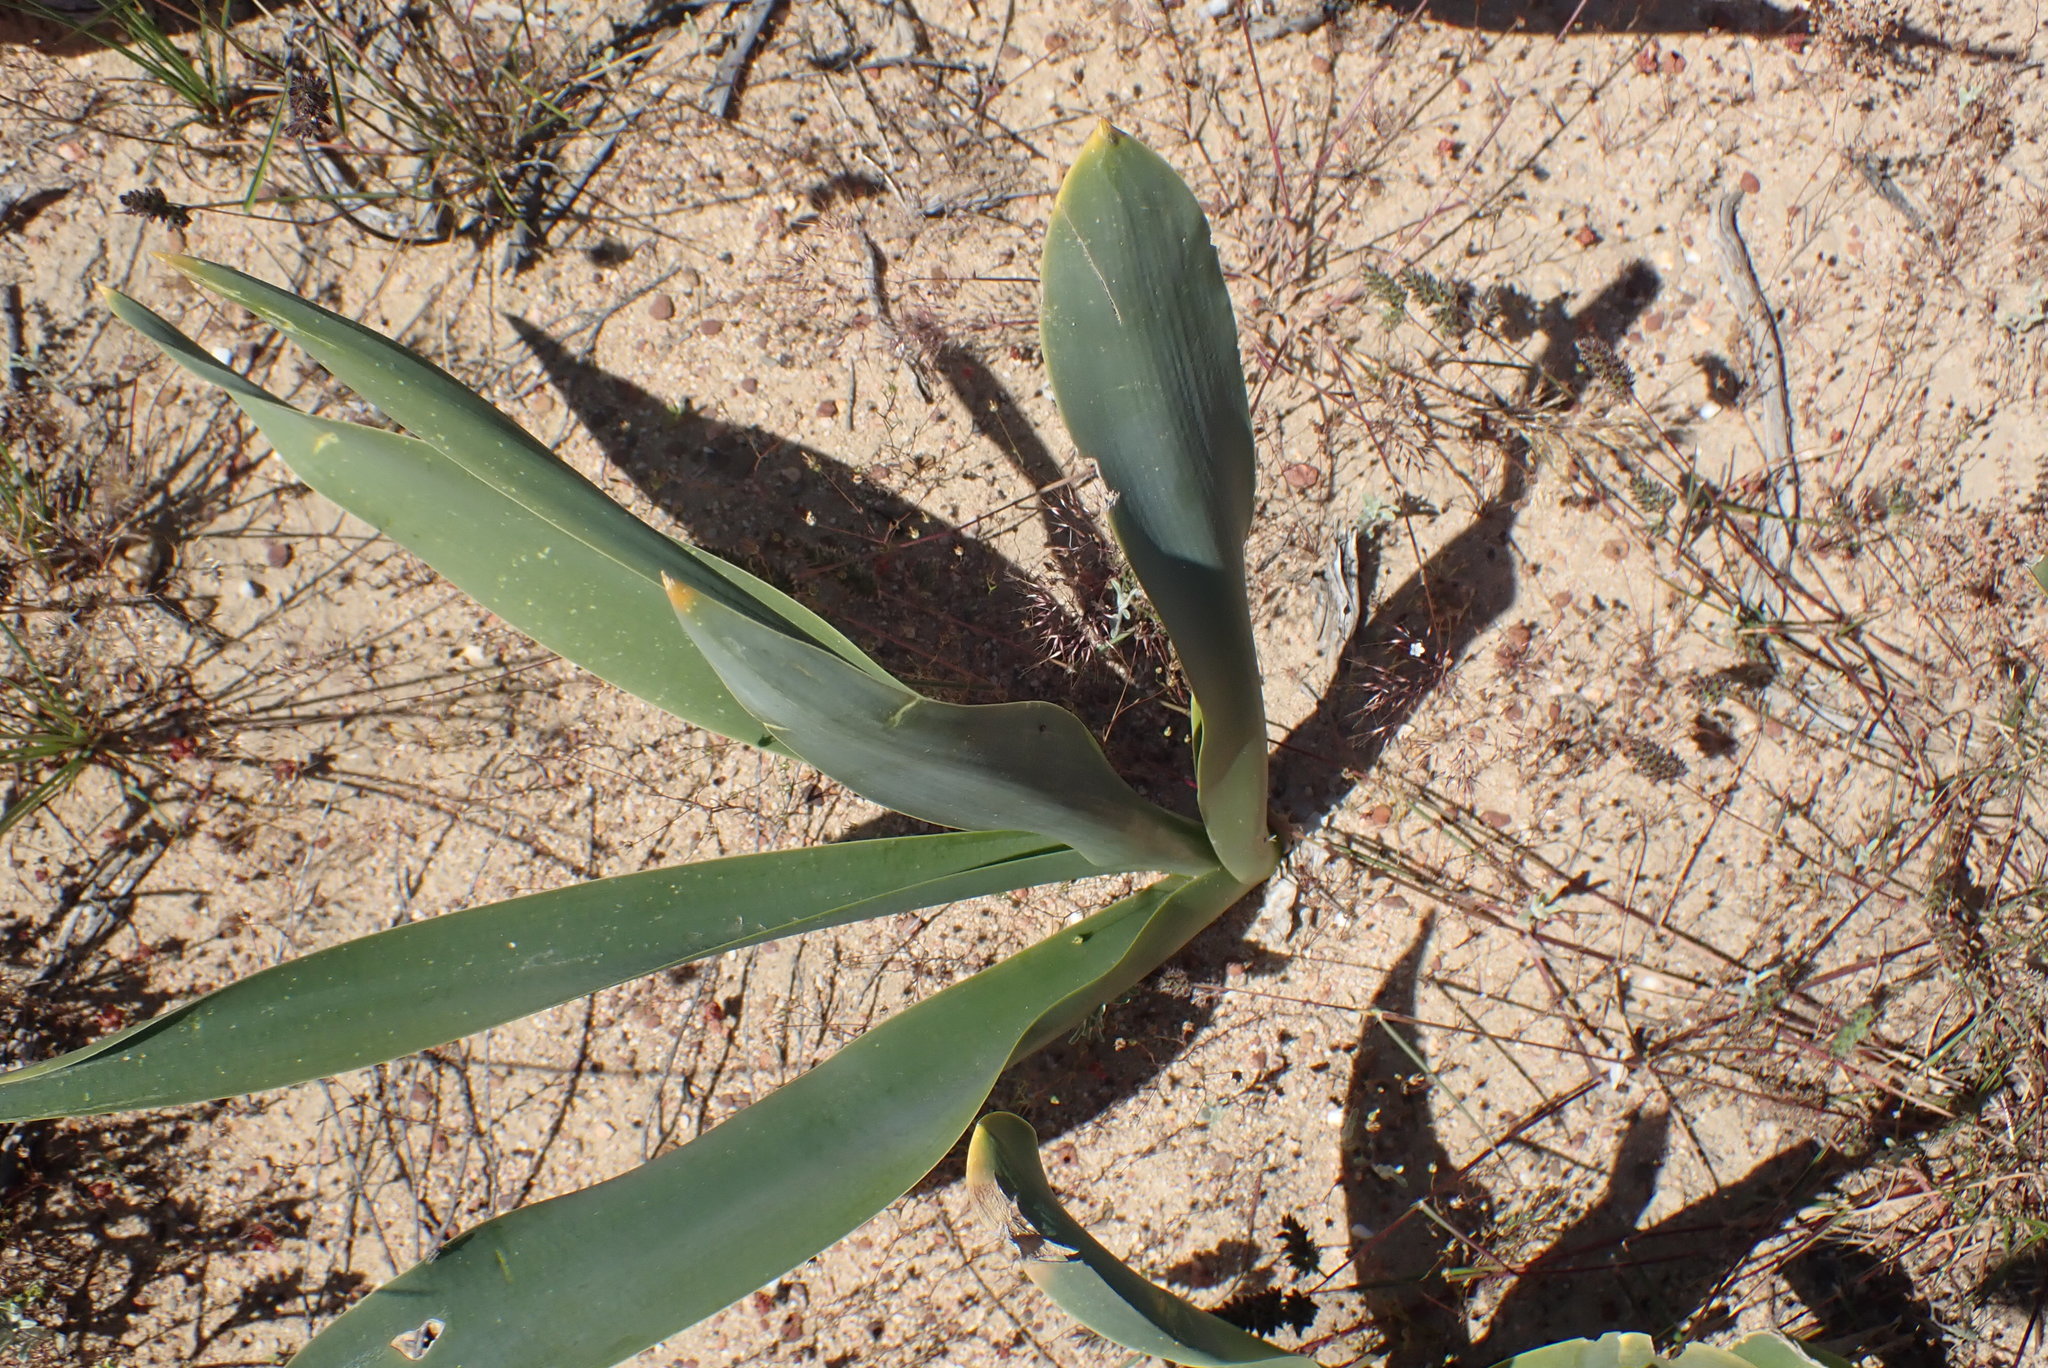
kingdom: Plantae
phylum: Tracheophyta
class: Liliopsida
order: Asparagales
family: Asparagaceae
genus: Drimia
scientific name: Drimia capensis
